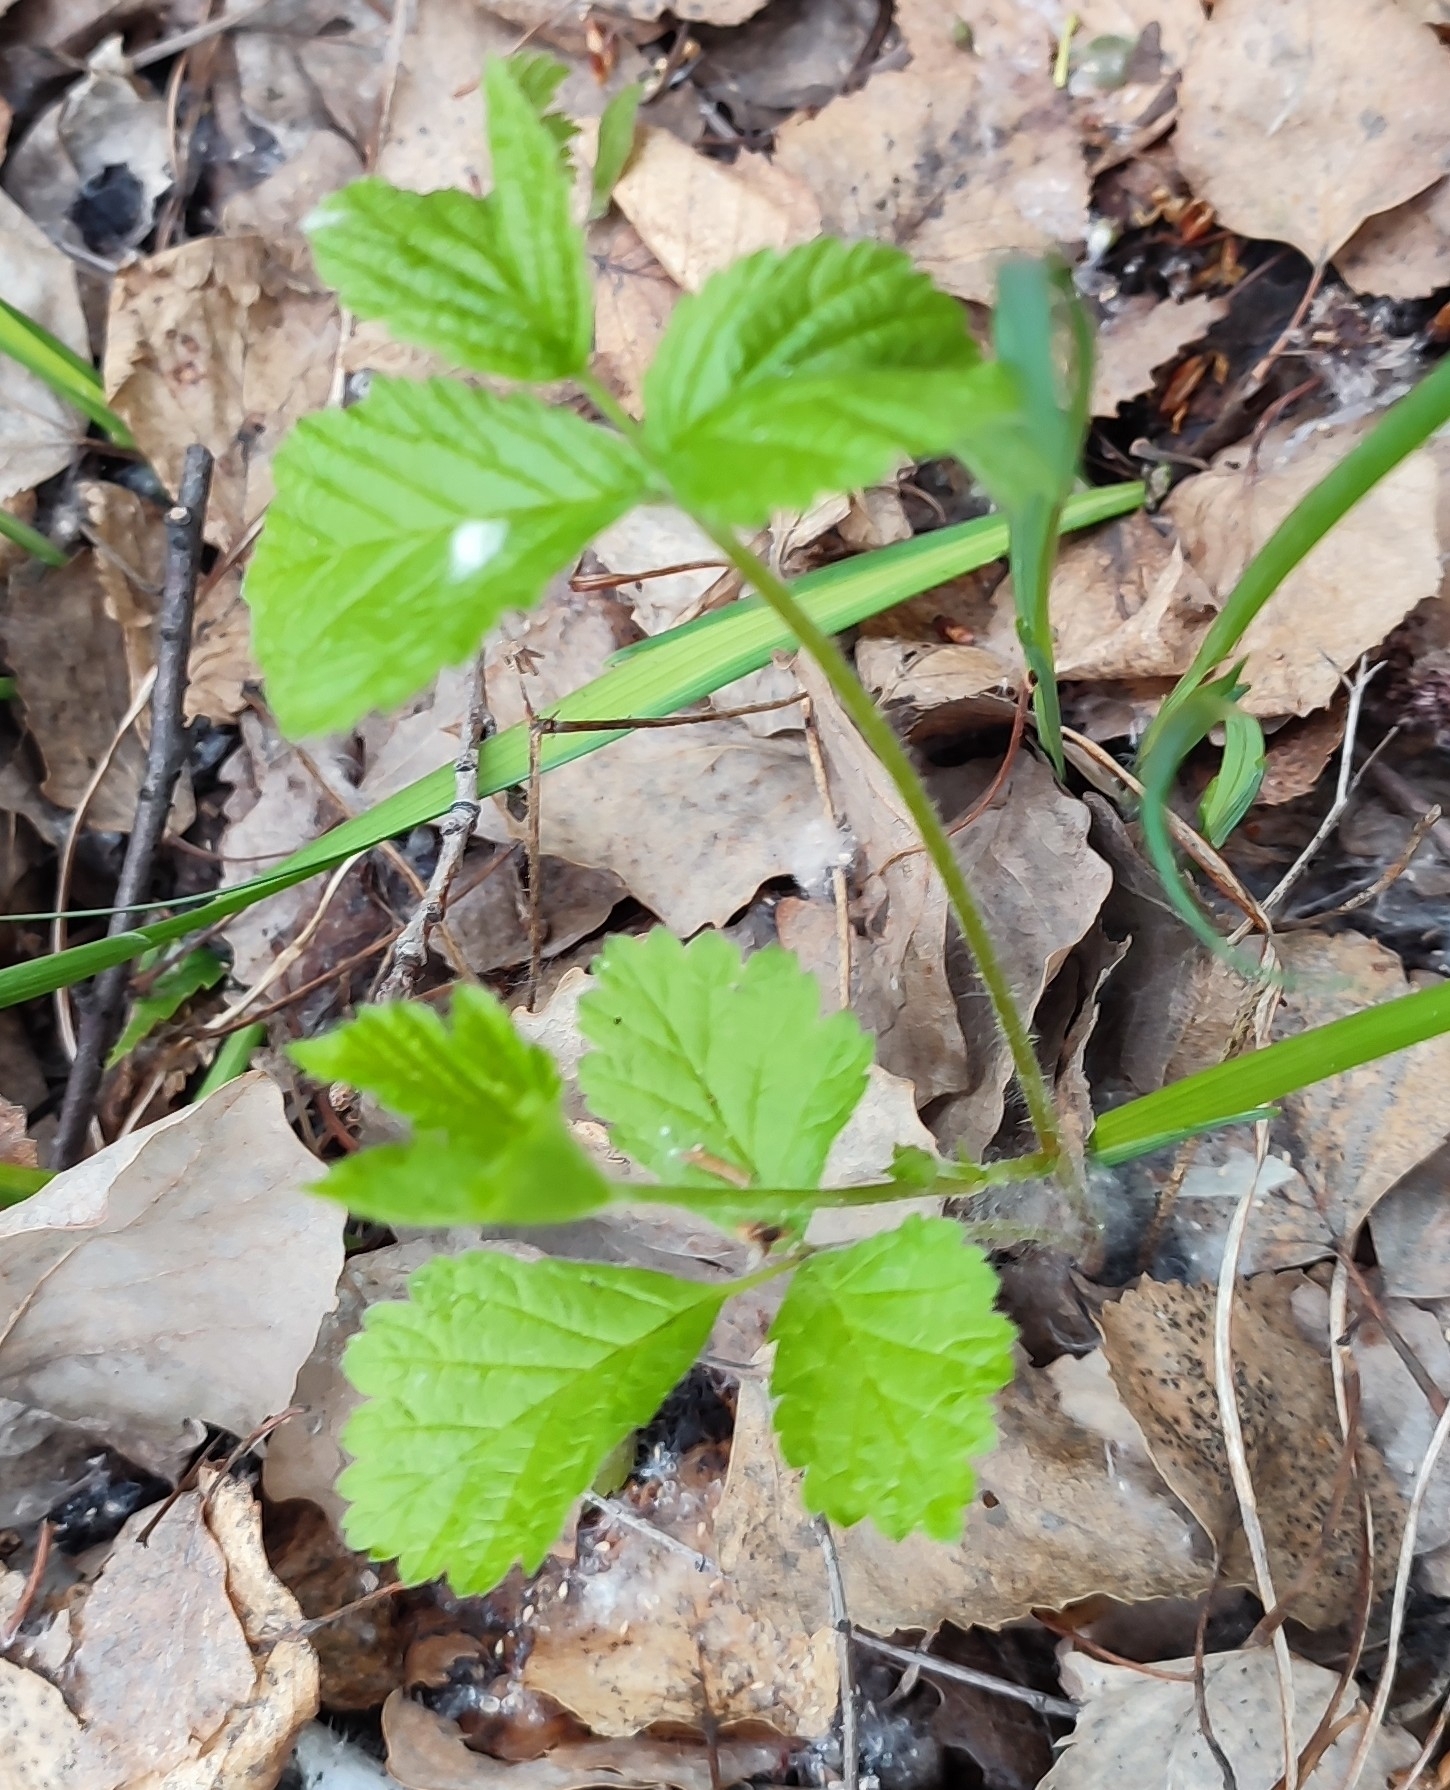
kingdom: Plantae
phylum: Tracheophyta
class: Magnoliopsida
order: Rosales
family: Rosaceae
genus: Rubus
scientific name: Rubus saxatilis
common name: Stone bramble
